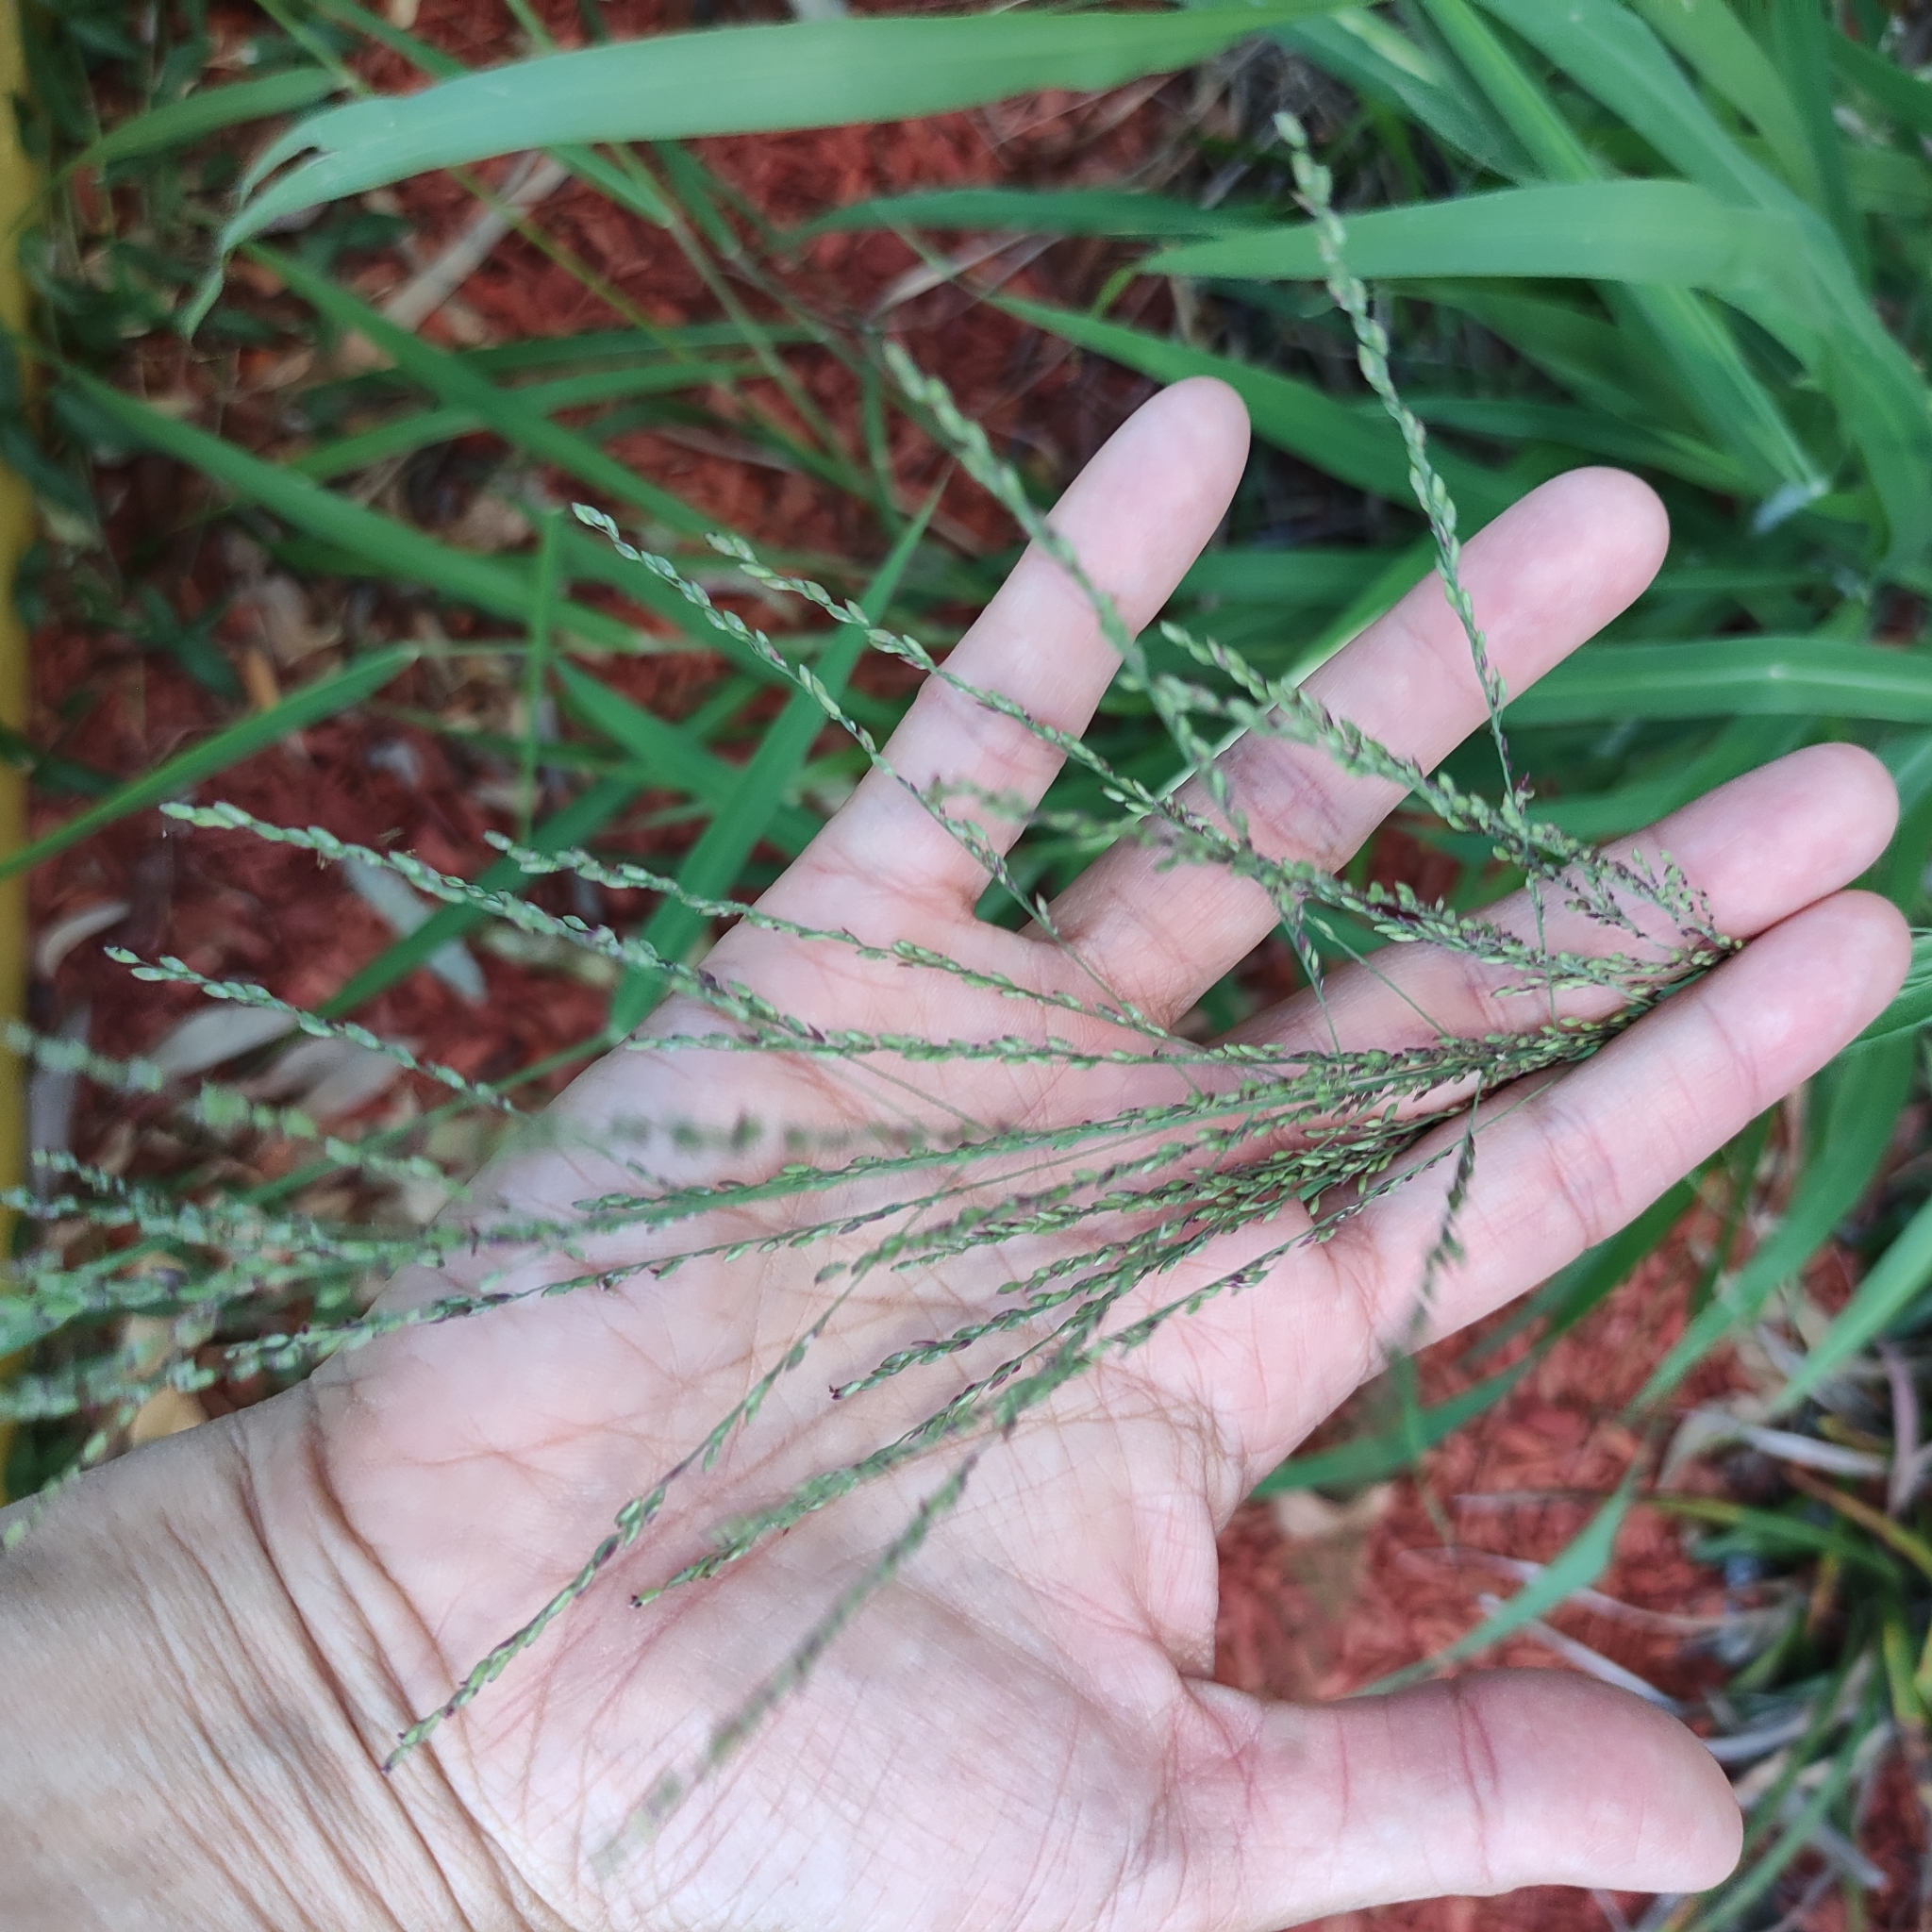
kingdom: Plantae
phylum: Tracheophyta
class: Liliopsida
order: Poales
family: Poaceae
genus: Megathyrsus
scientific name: Megathyrsus maximus
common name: Guineagrass
